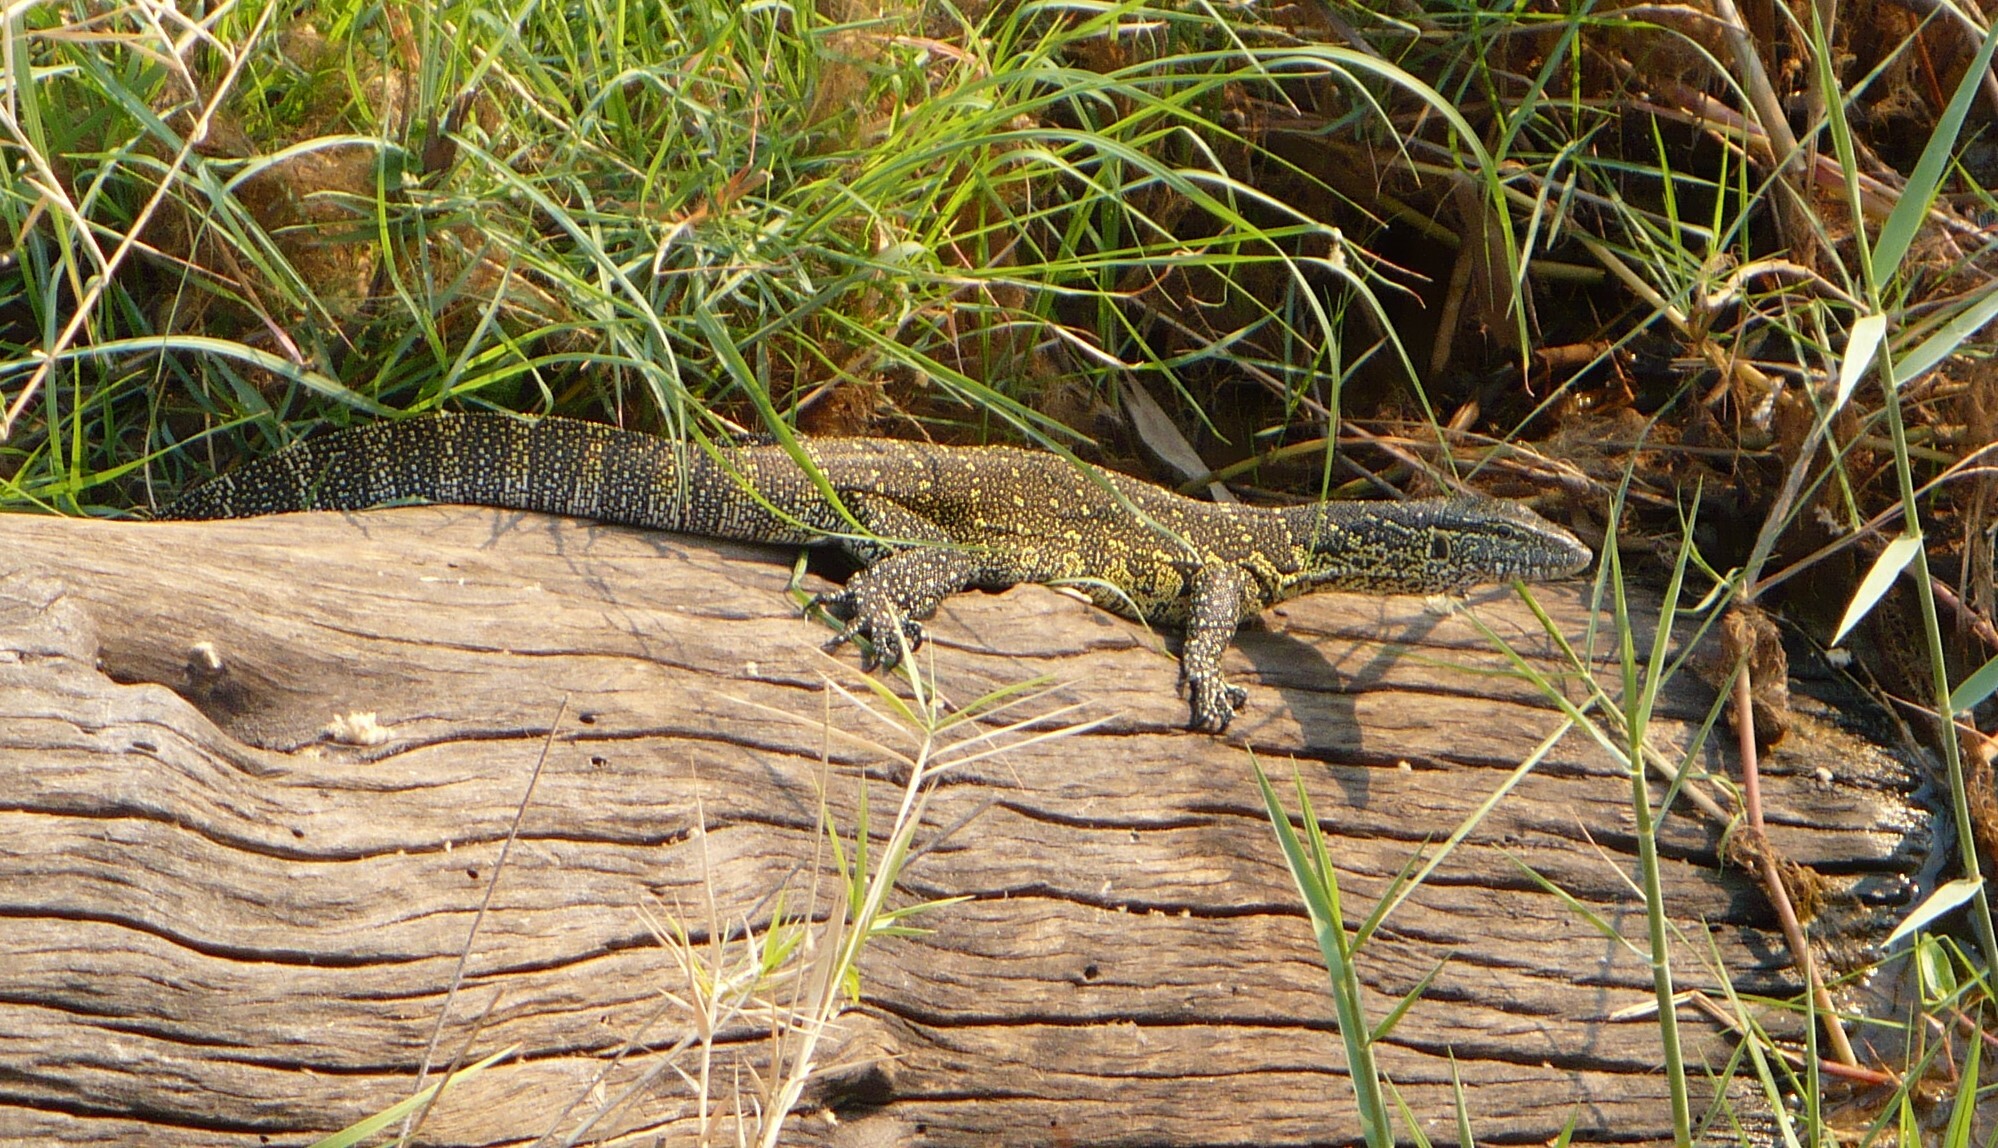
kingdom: Animalia
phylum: Chordata
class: Squamata
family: Varanidae
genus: Varanus
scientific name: Varanus niloticus
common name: Nile monitor
